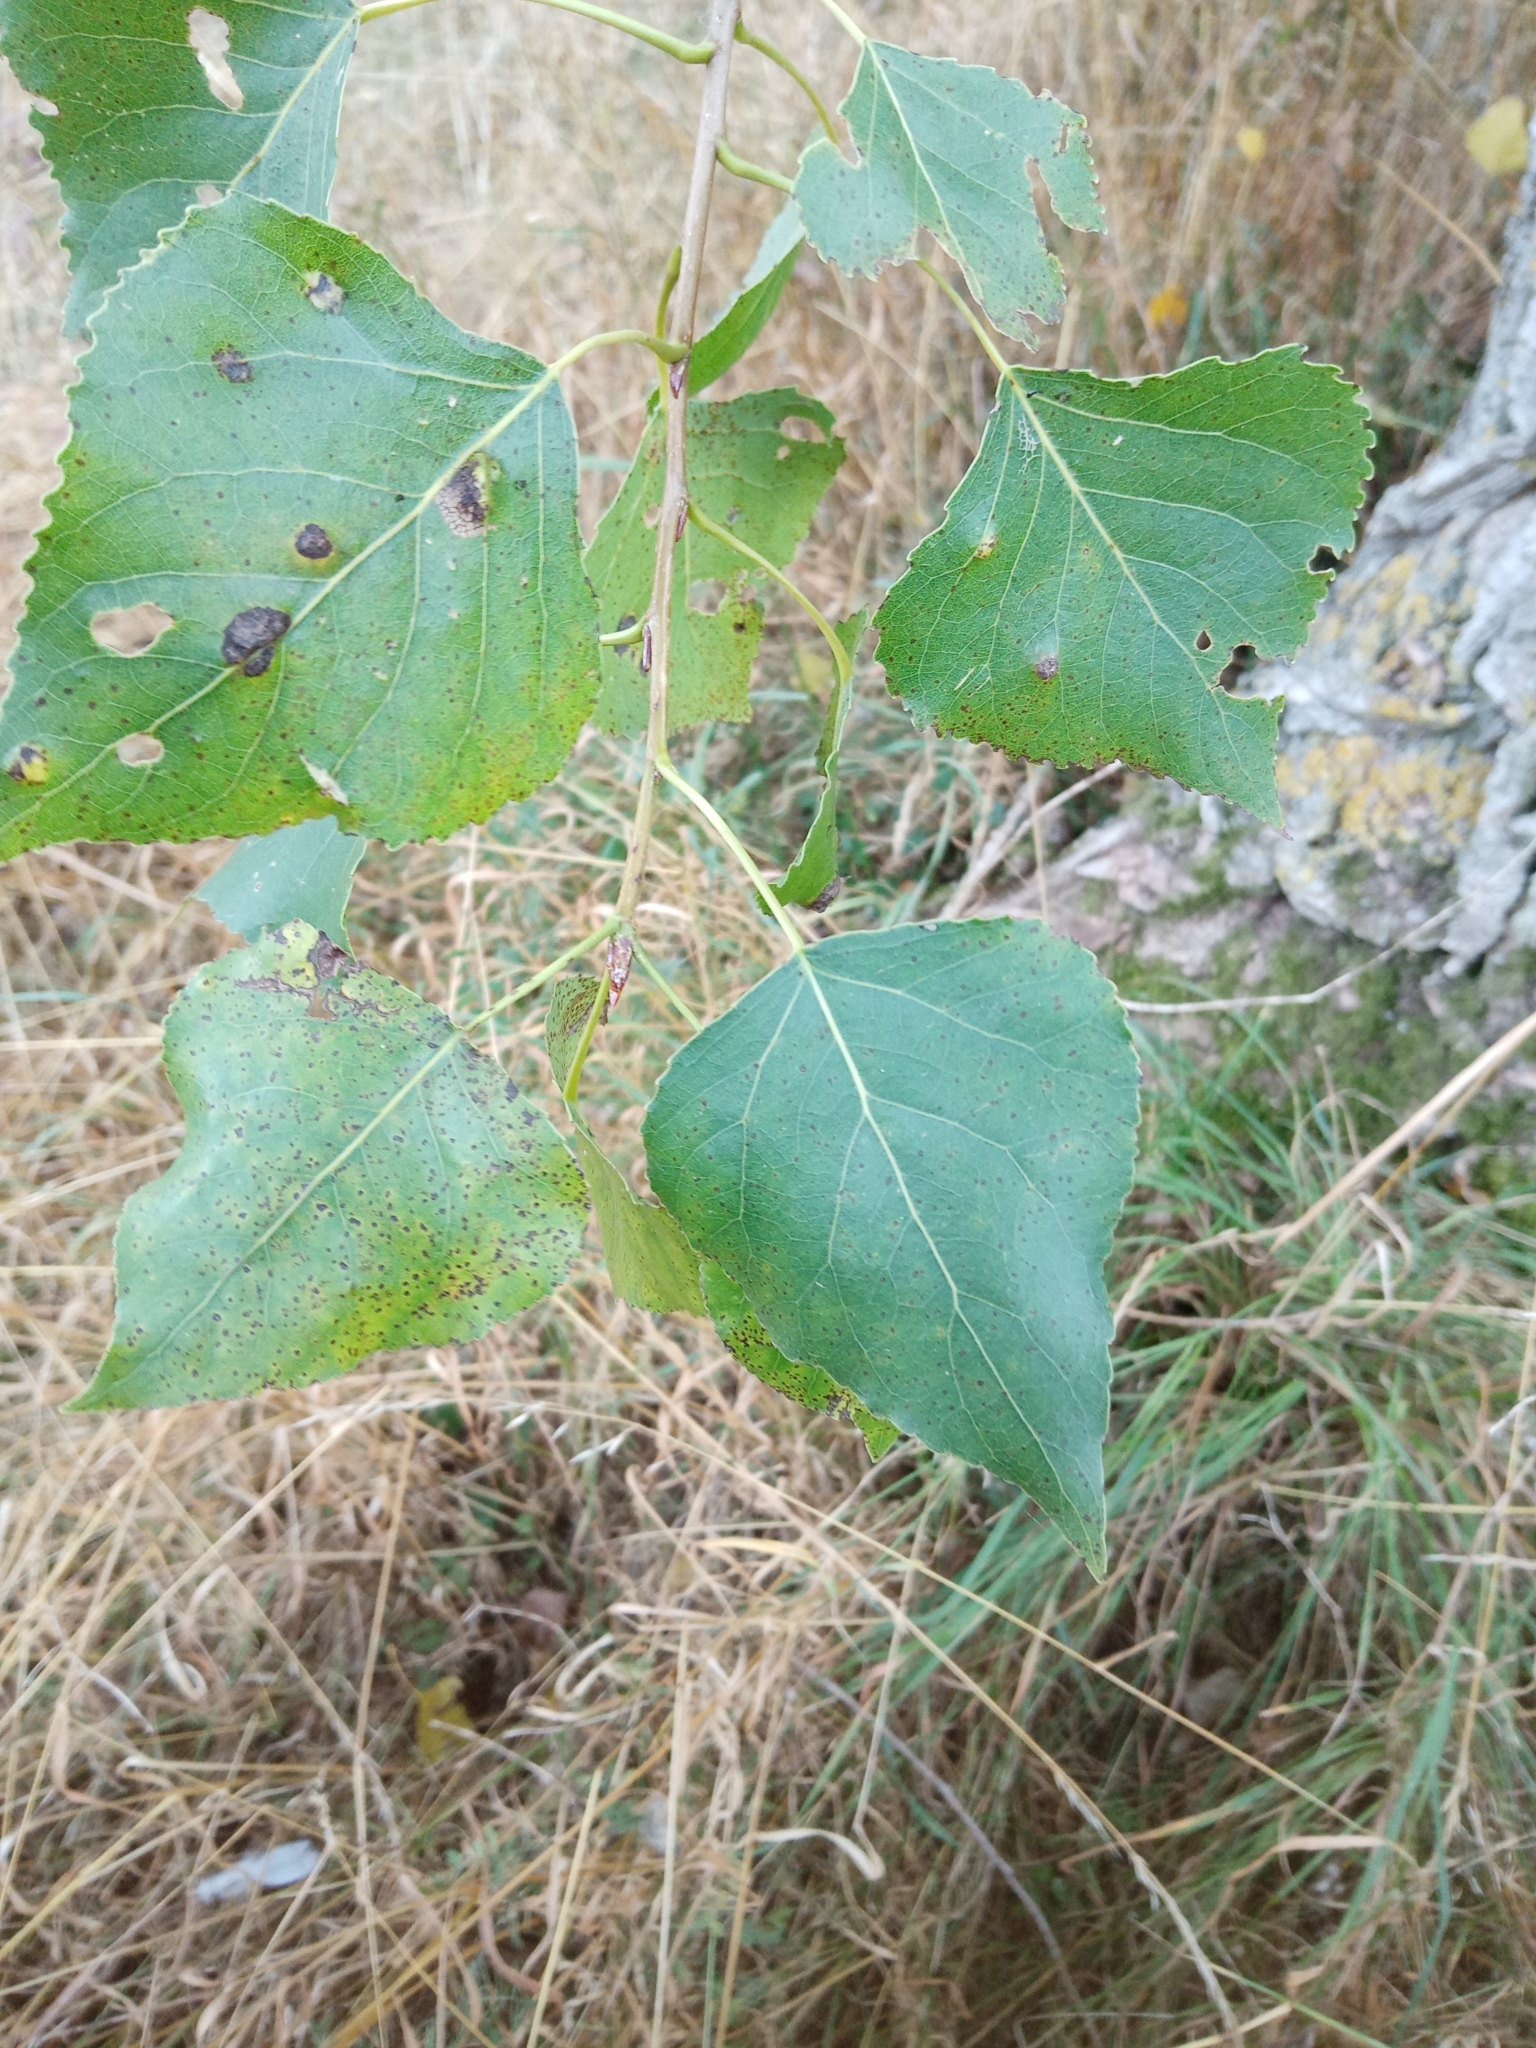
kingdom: Plantae
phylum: Tracheophyta
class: Magnoliopsida
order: Malpighiales
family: Salicaceae
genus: Populus
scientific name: Populus nigra
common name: Black poplar
